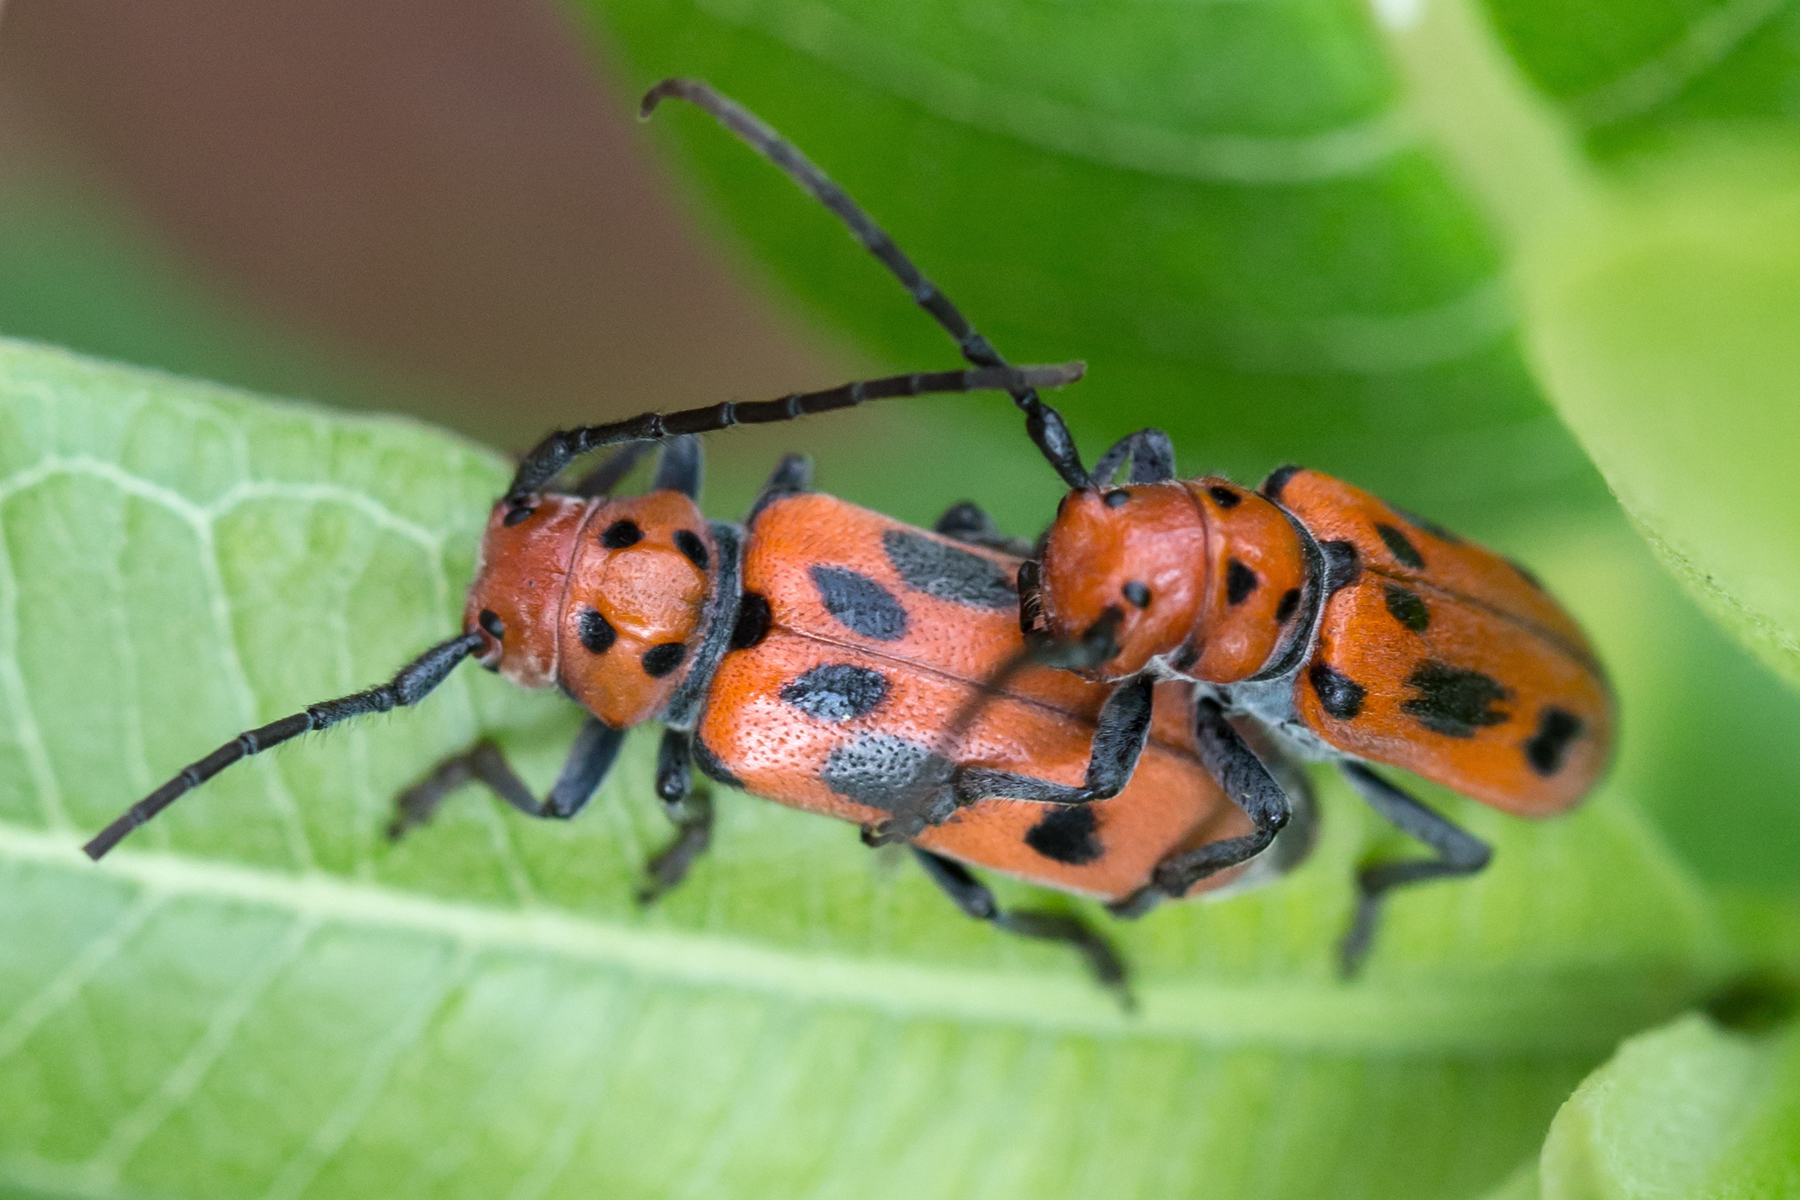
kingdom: Animalia
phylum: Arthropoda
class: Insecta
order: Coleoptera
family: Cerambycidae
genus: Tetraopes
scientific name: Tetraopes tetrophthalmus
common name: Red milkweed beetle
